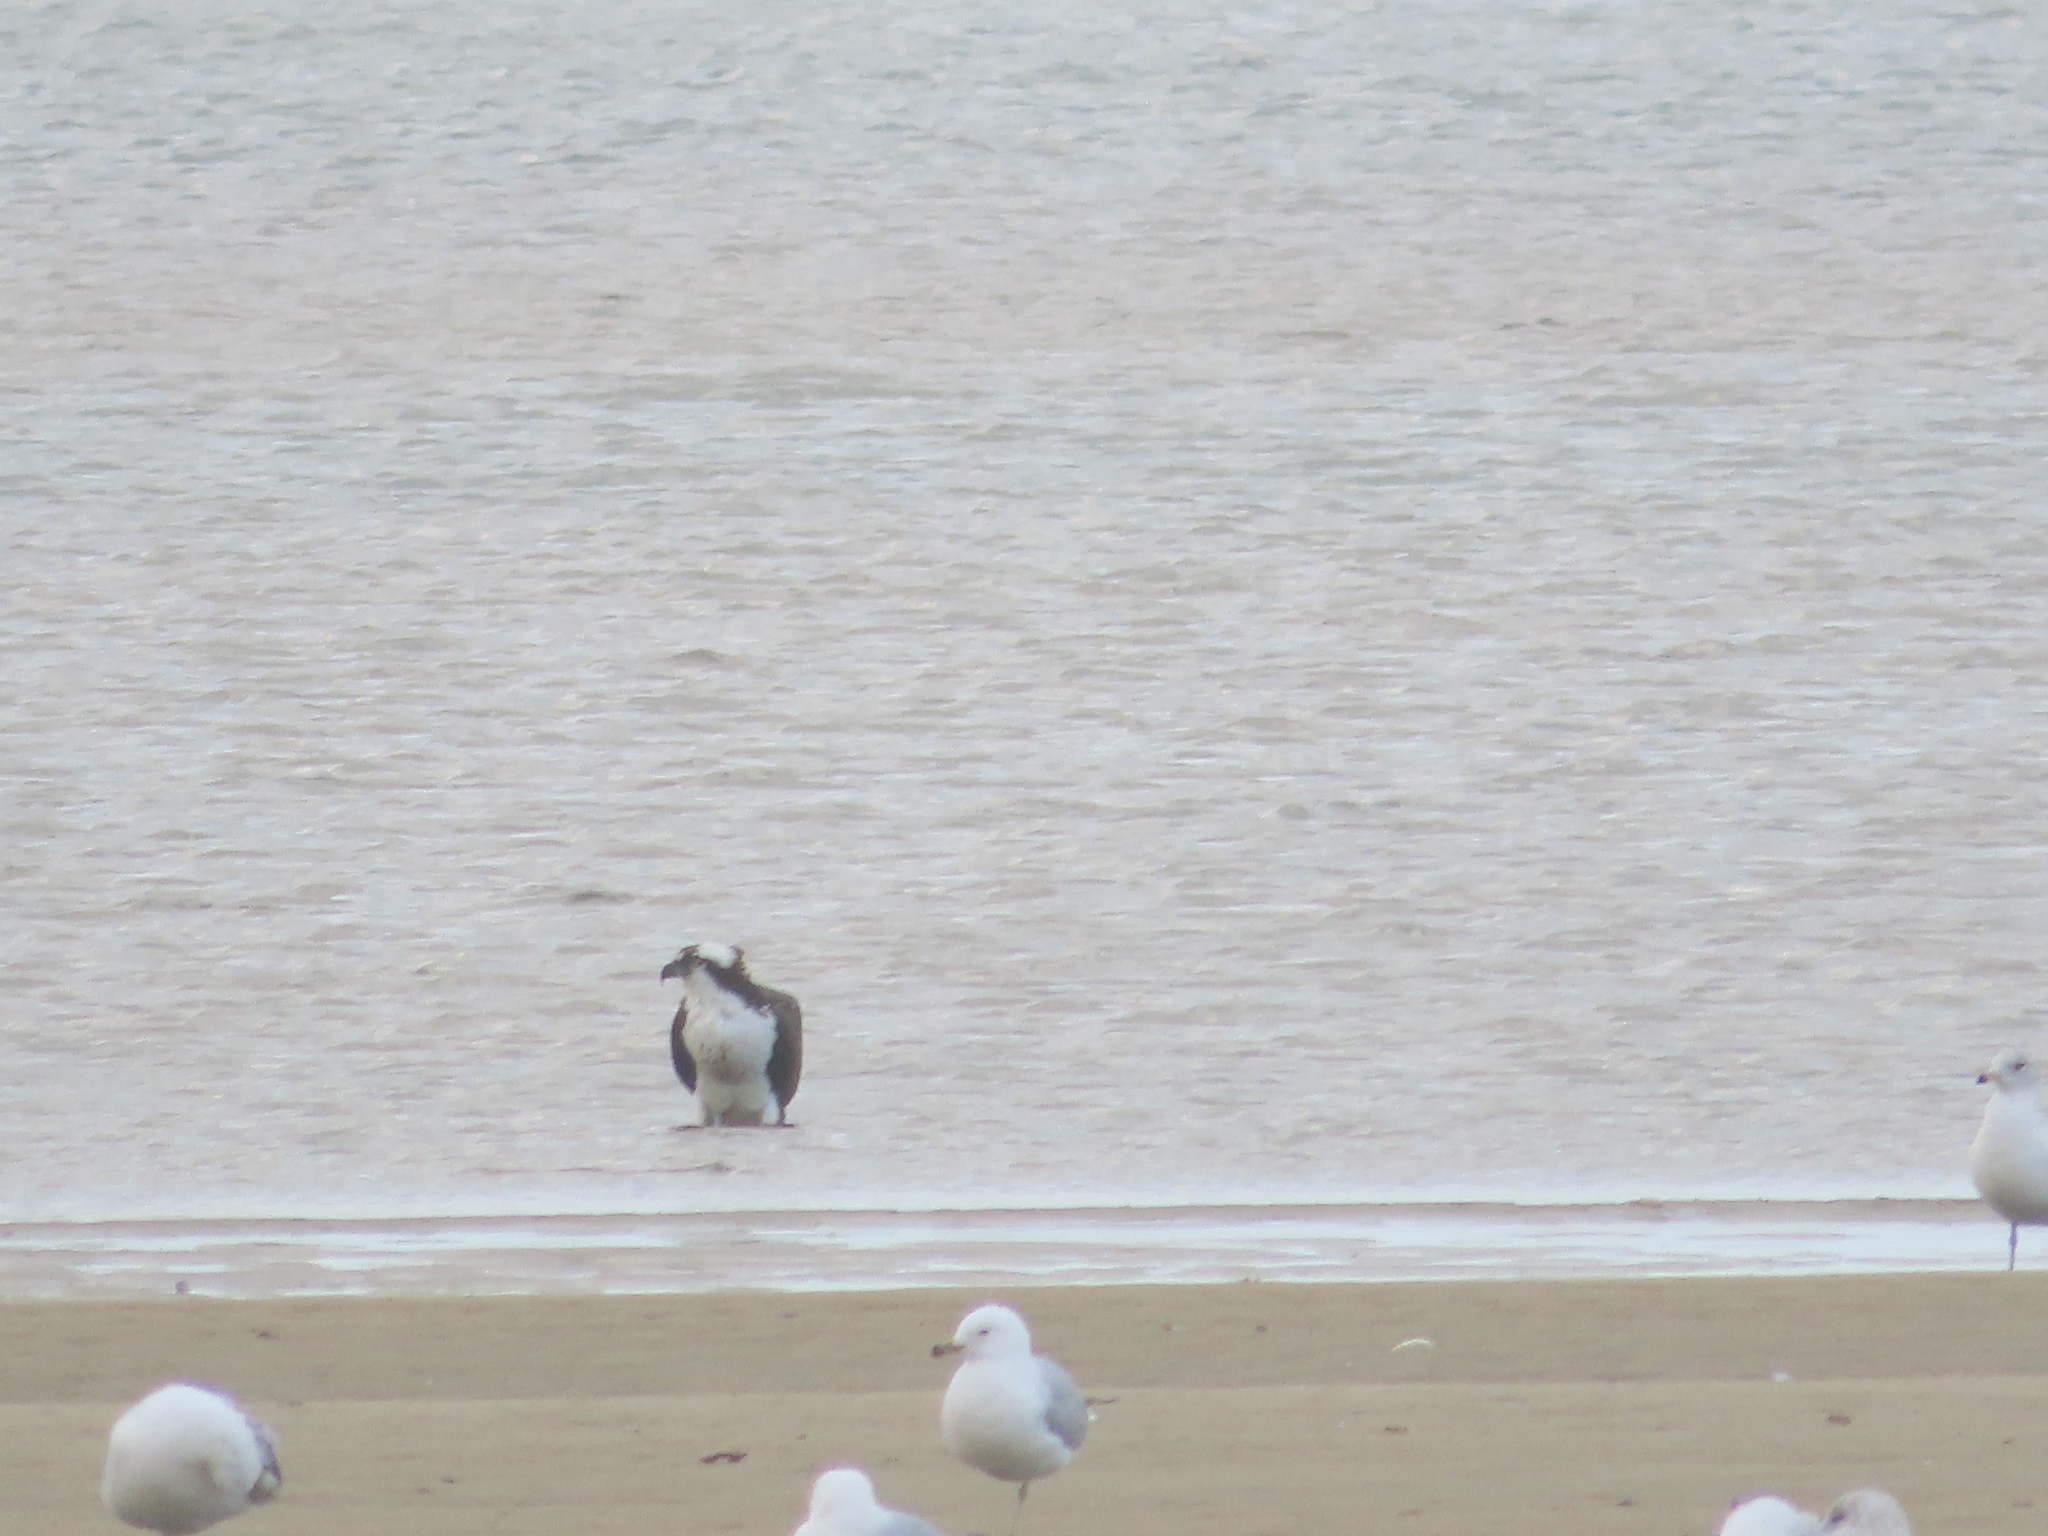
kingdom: Animalia
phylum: Chordata
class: Aves
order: Accipitriformes
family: Pandionidae
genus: Pandion
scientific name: Pandion haliaetus
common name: Osprey
